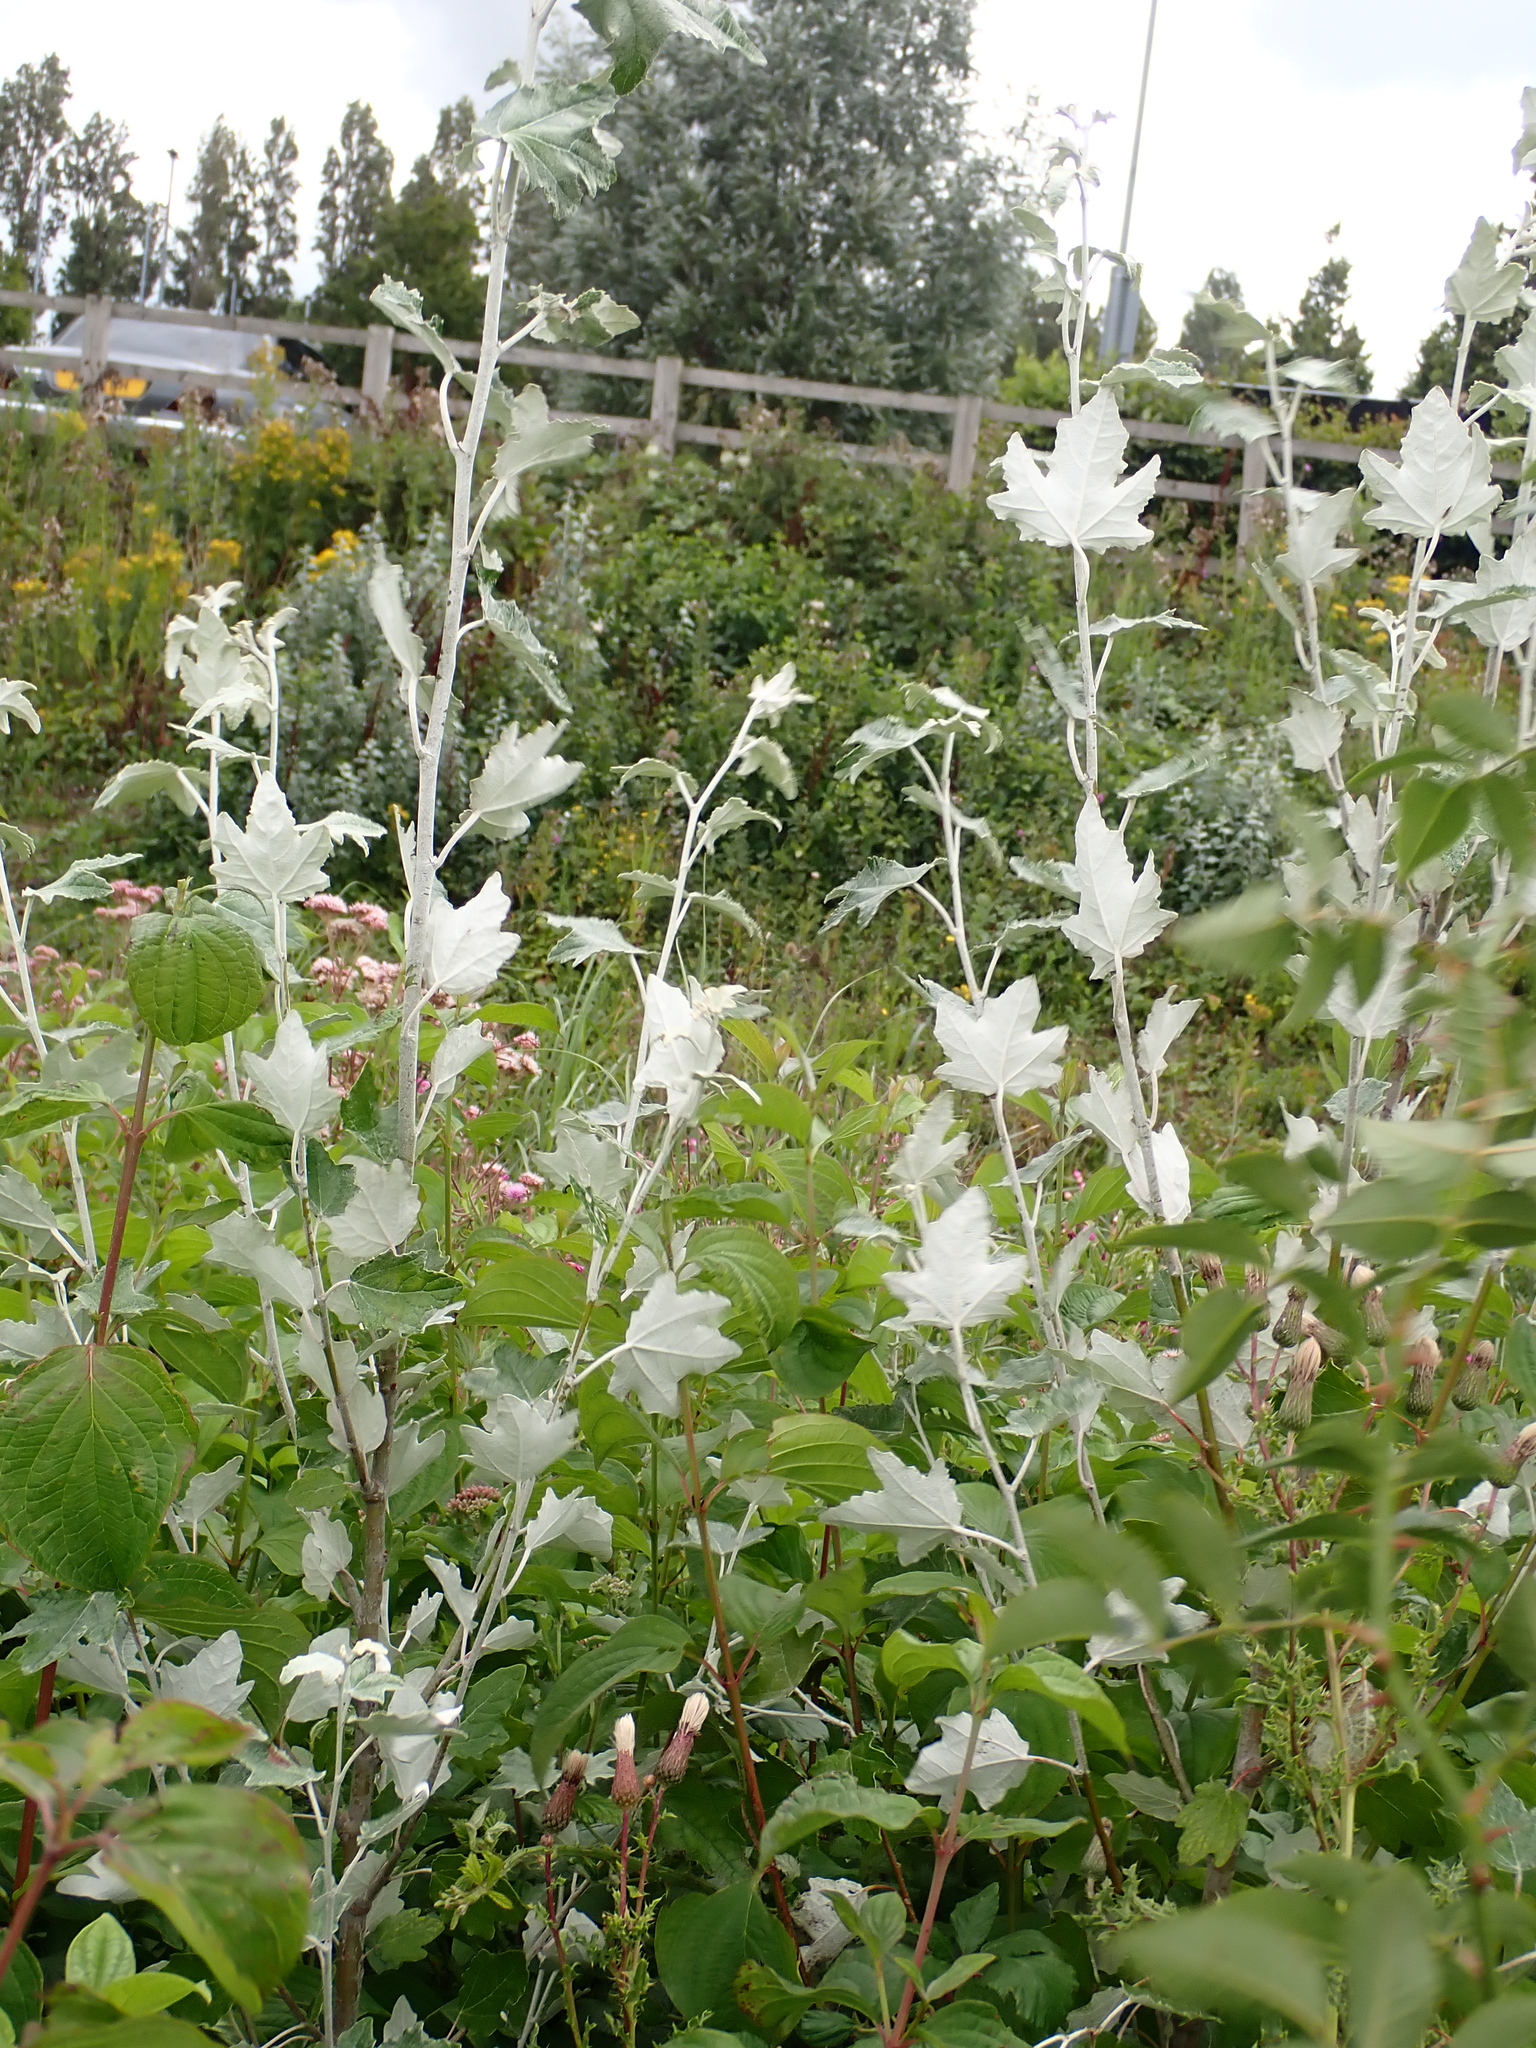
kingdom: Plantae
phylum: Tracheophyta
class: Magnoliopsida
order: Malpighiales
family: Salicaceae
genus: Populus
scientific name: Populus alba
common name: White poplar
